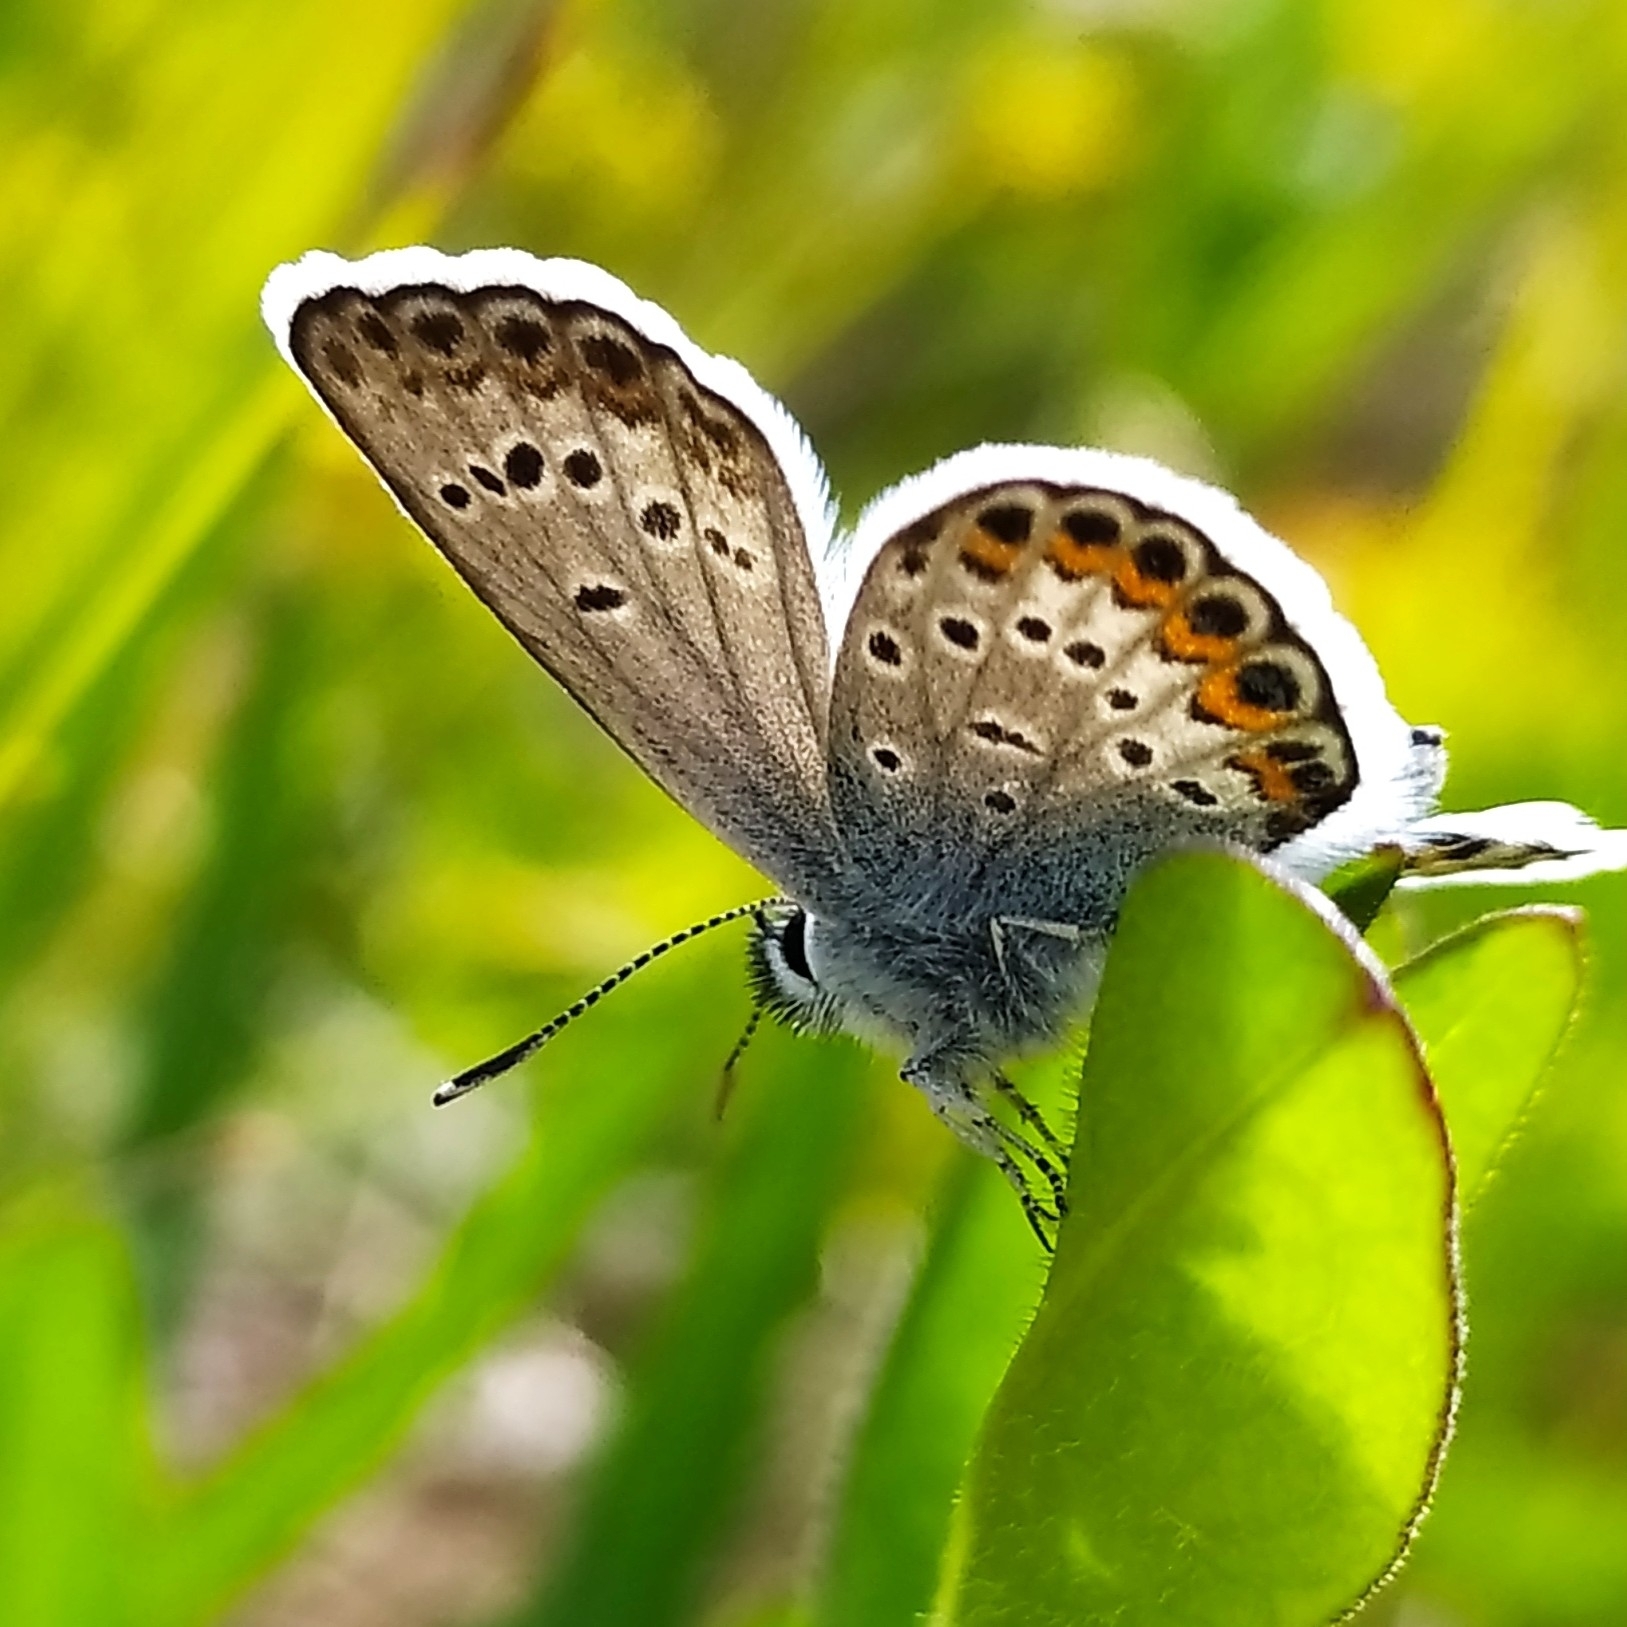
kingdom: Animalia
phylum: Arthropoda
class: Insecta
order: Lepidoptera
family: Lycaenidae
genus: Plebejus
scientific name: Plebejus argus
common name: Silver-studded blue
